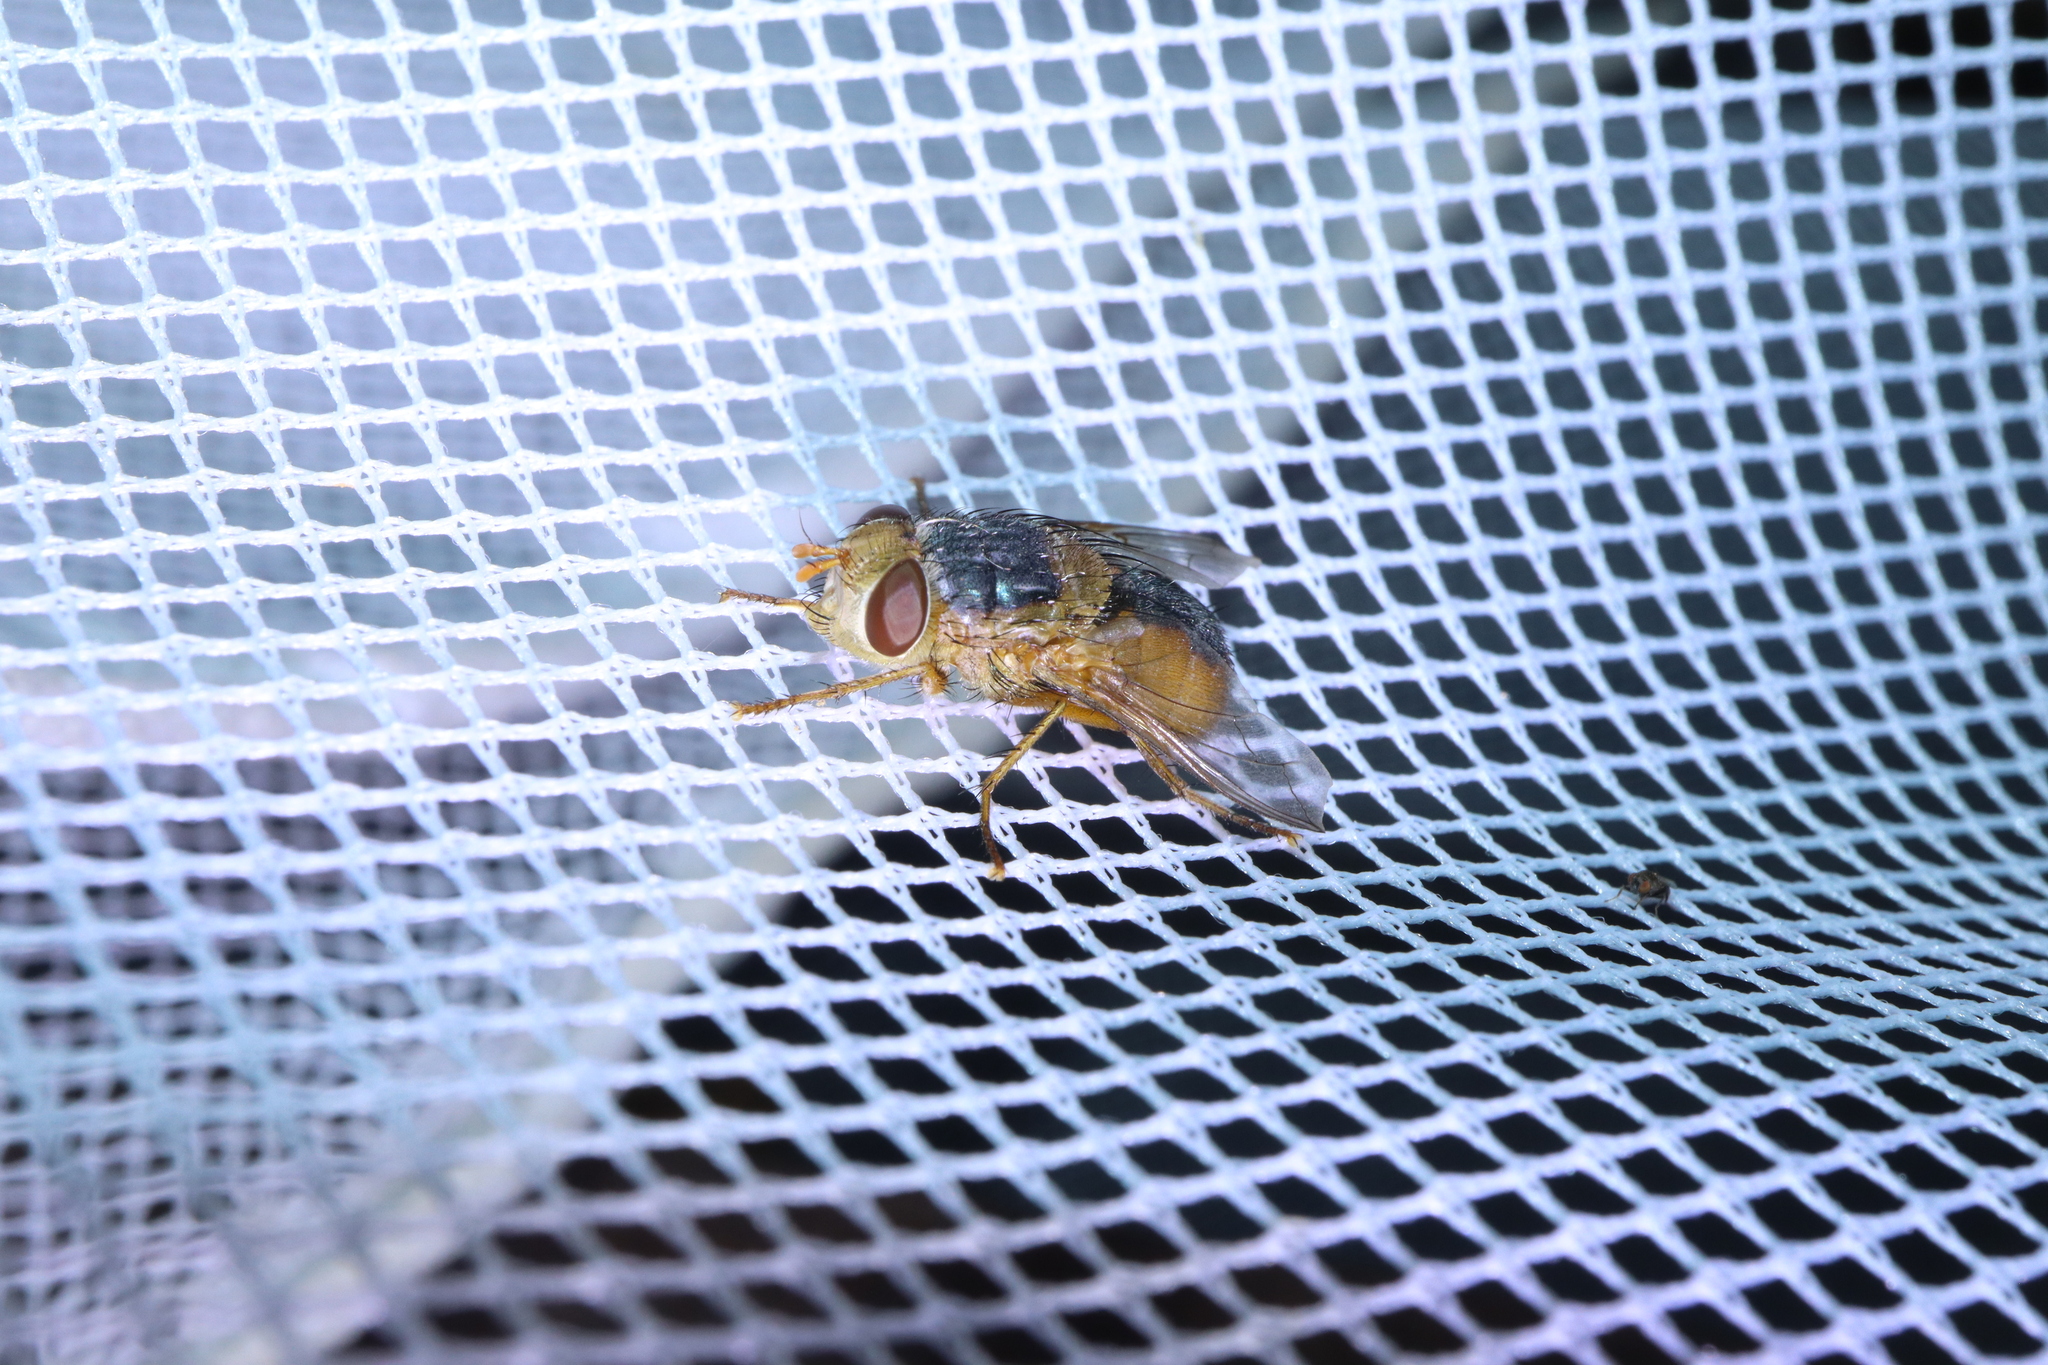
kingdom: Animalia
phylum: Arthropoda
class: Insecta
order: Diptera
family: Tachinidae
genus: Microtropesa
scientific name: Microtropesa flaviventris
